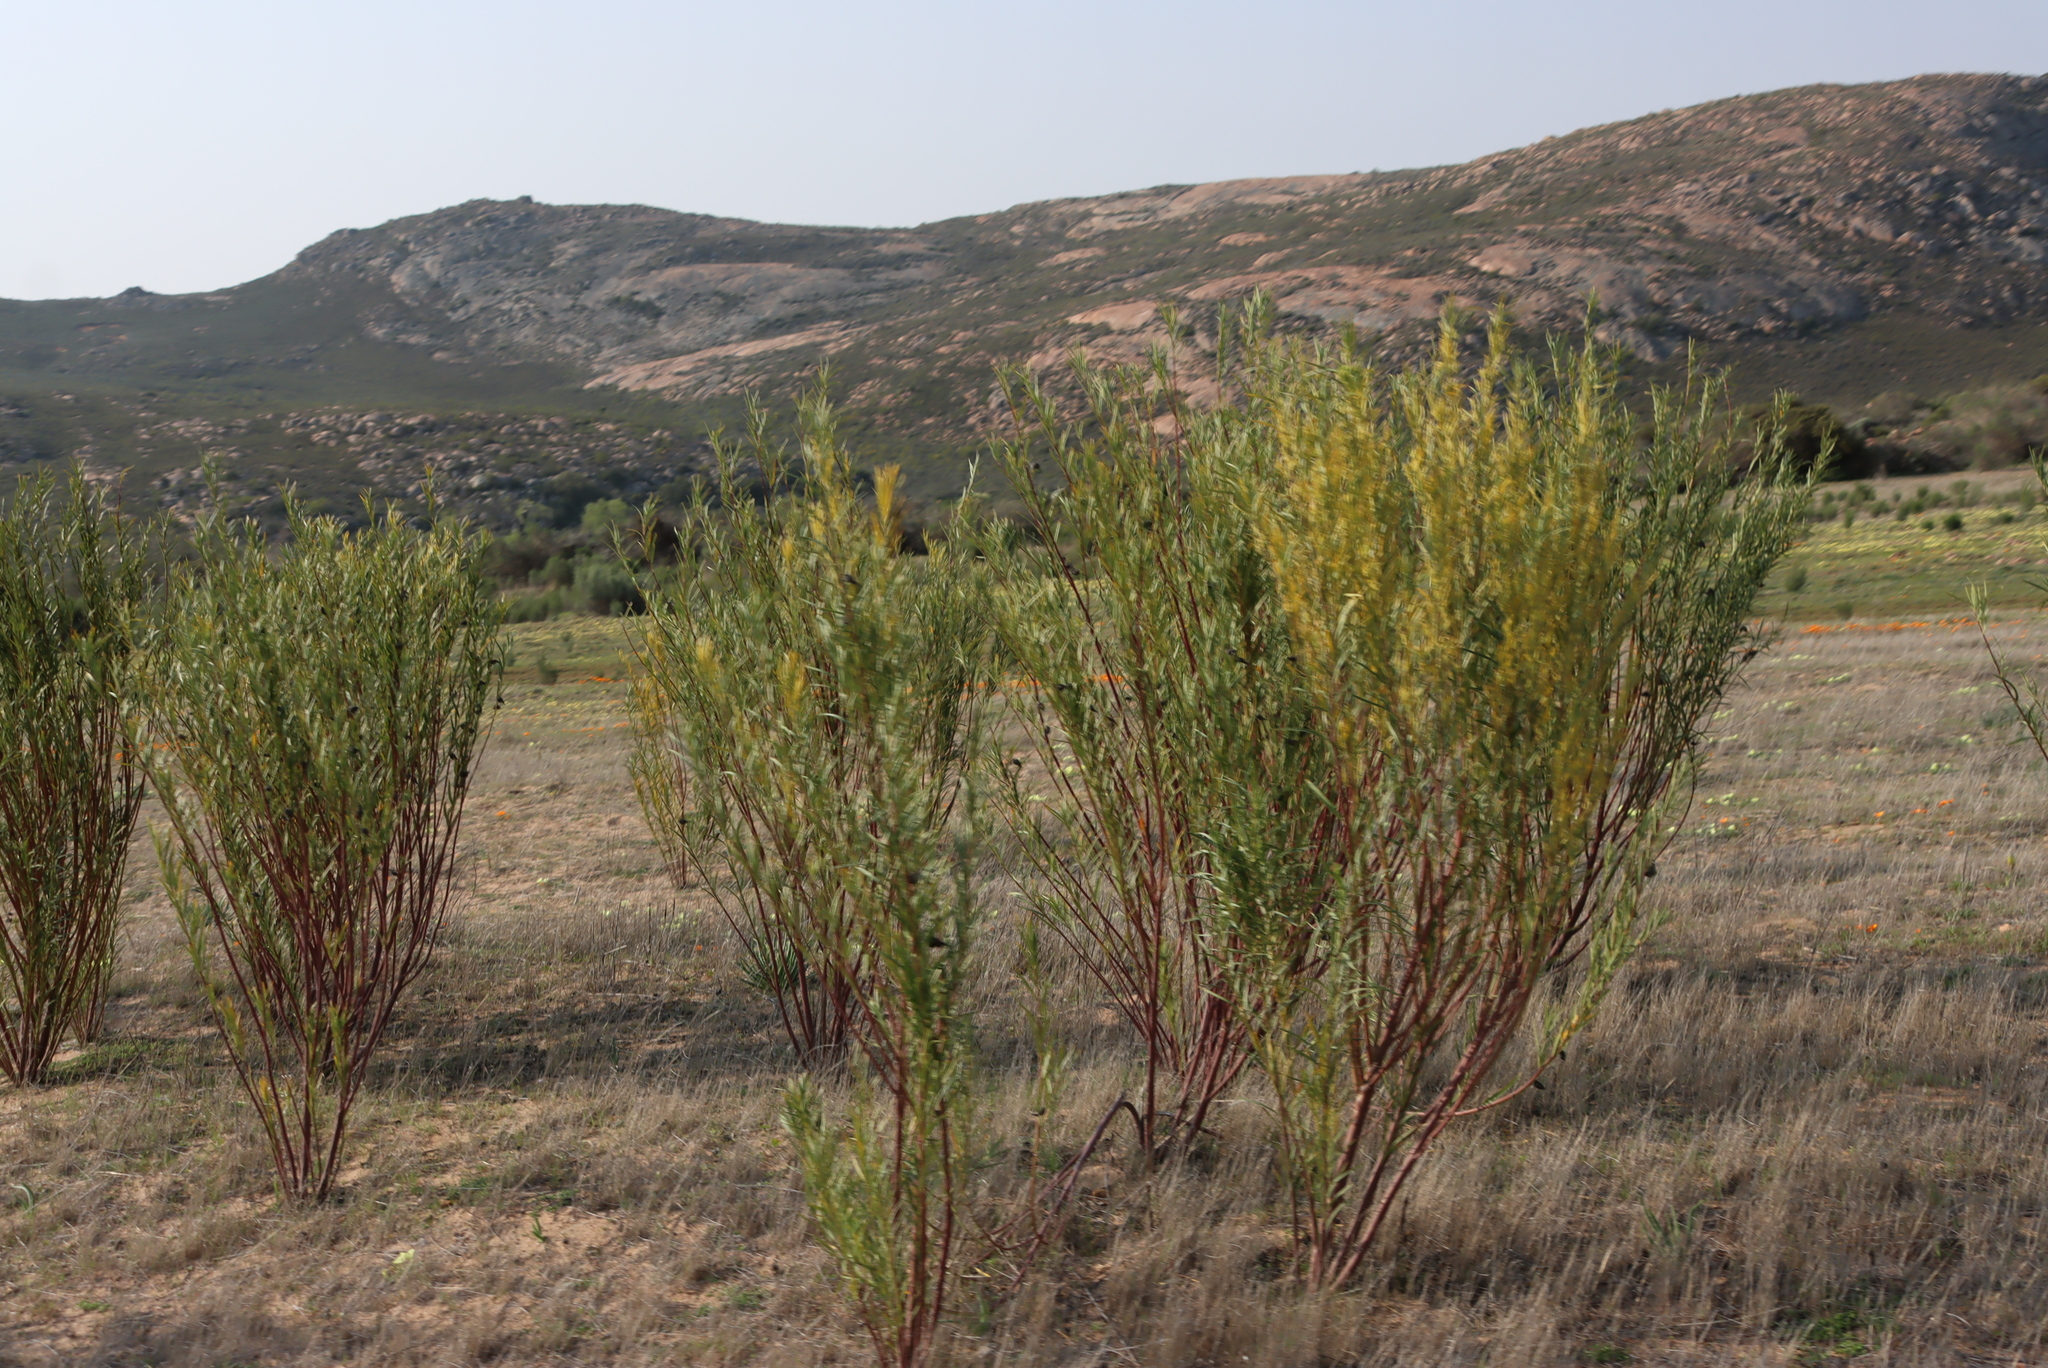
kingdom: Plantae
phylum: Tracheophyta
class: Magnoliopsida
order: Gentianales
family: Apocynaceae
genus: Gomphocarpus
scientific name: Gomphocarpus fruticosus
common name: Milkweed
